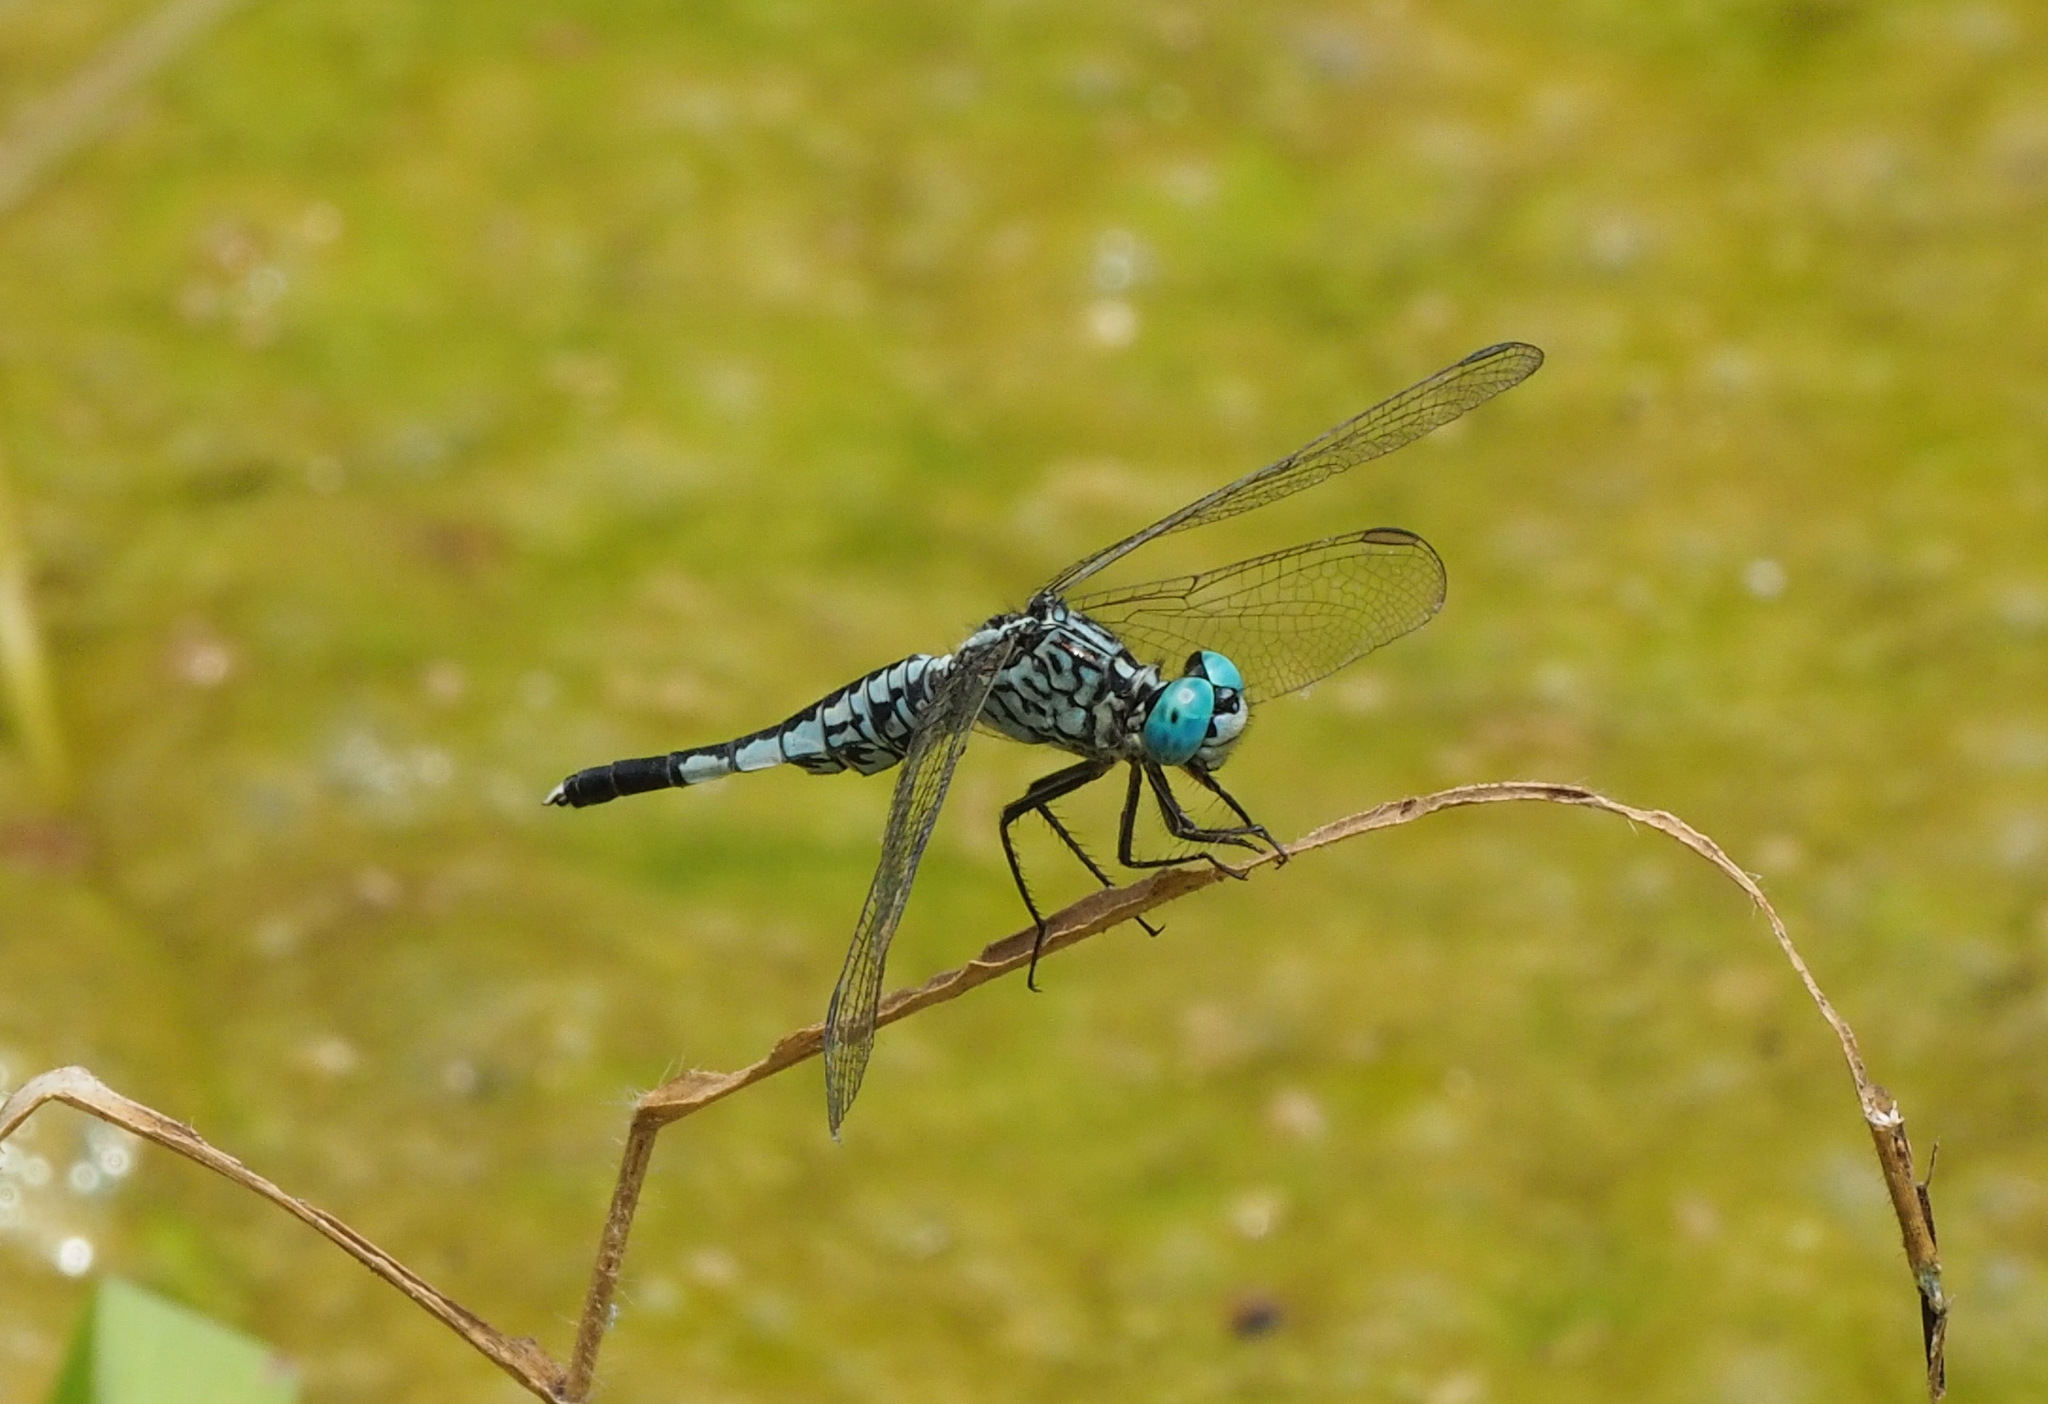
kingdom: Animalia
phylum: Arthropoda
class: Insecta
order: Odonata
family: Libellulidae
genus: Acisoma
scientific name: Acisoma panorpoides
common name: Asian pintail
